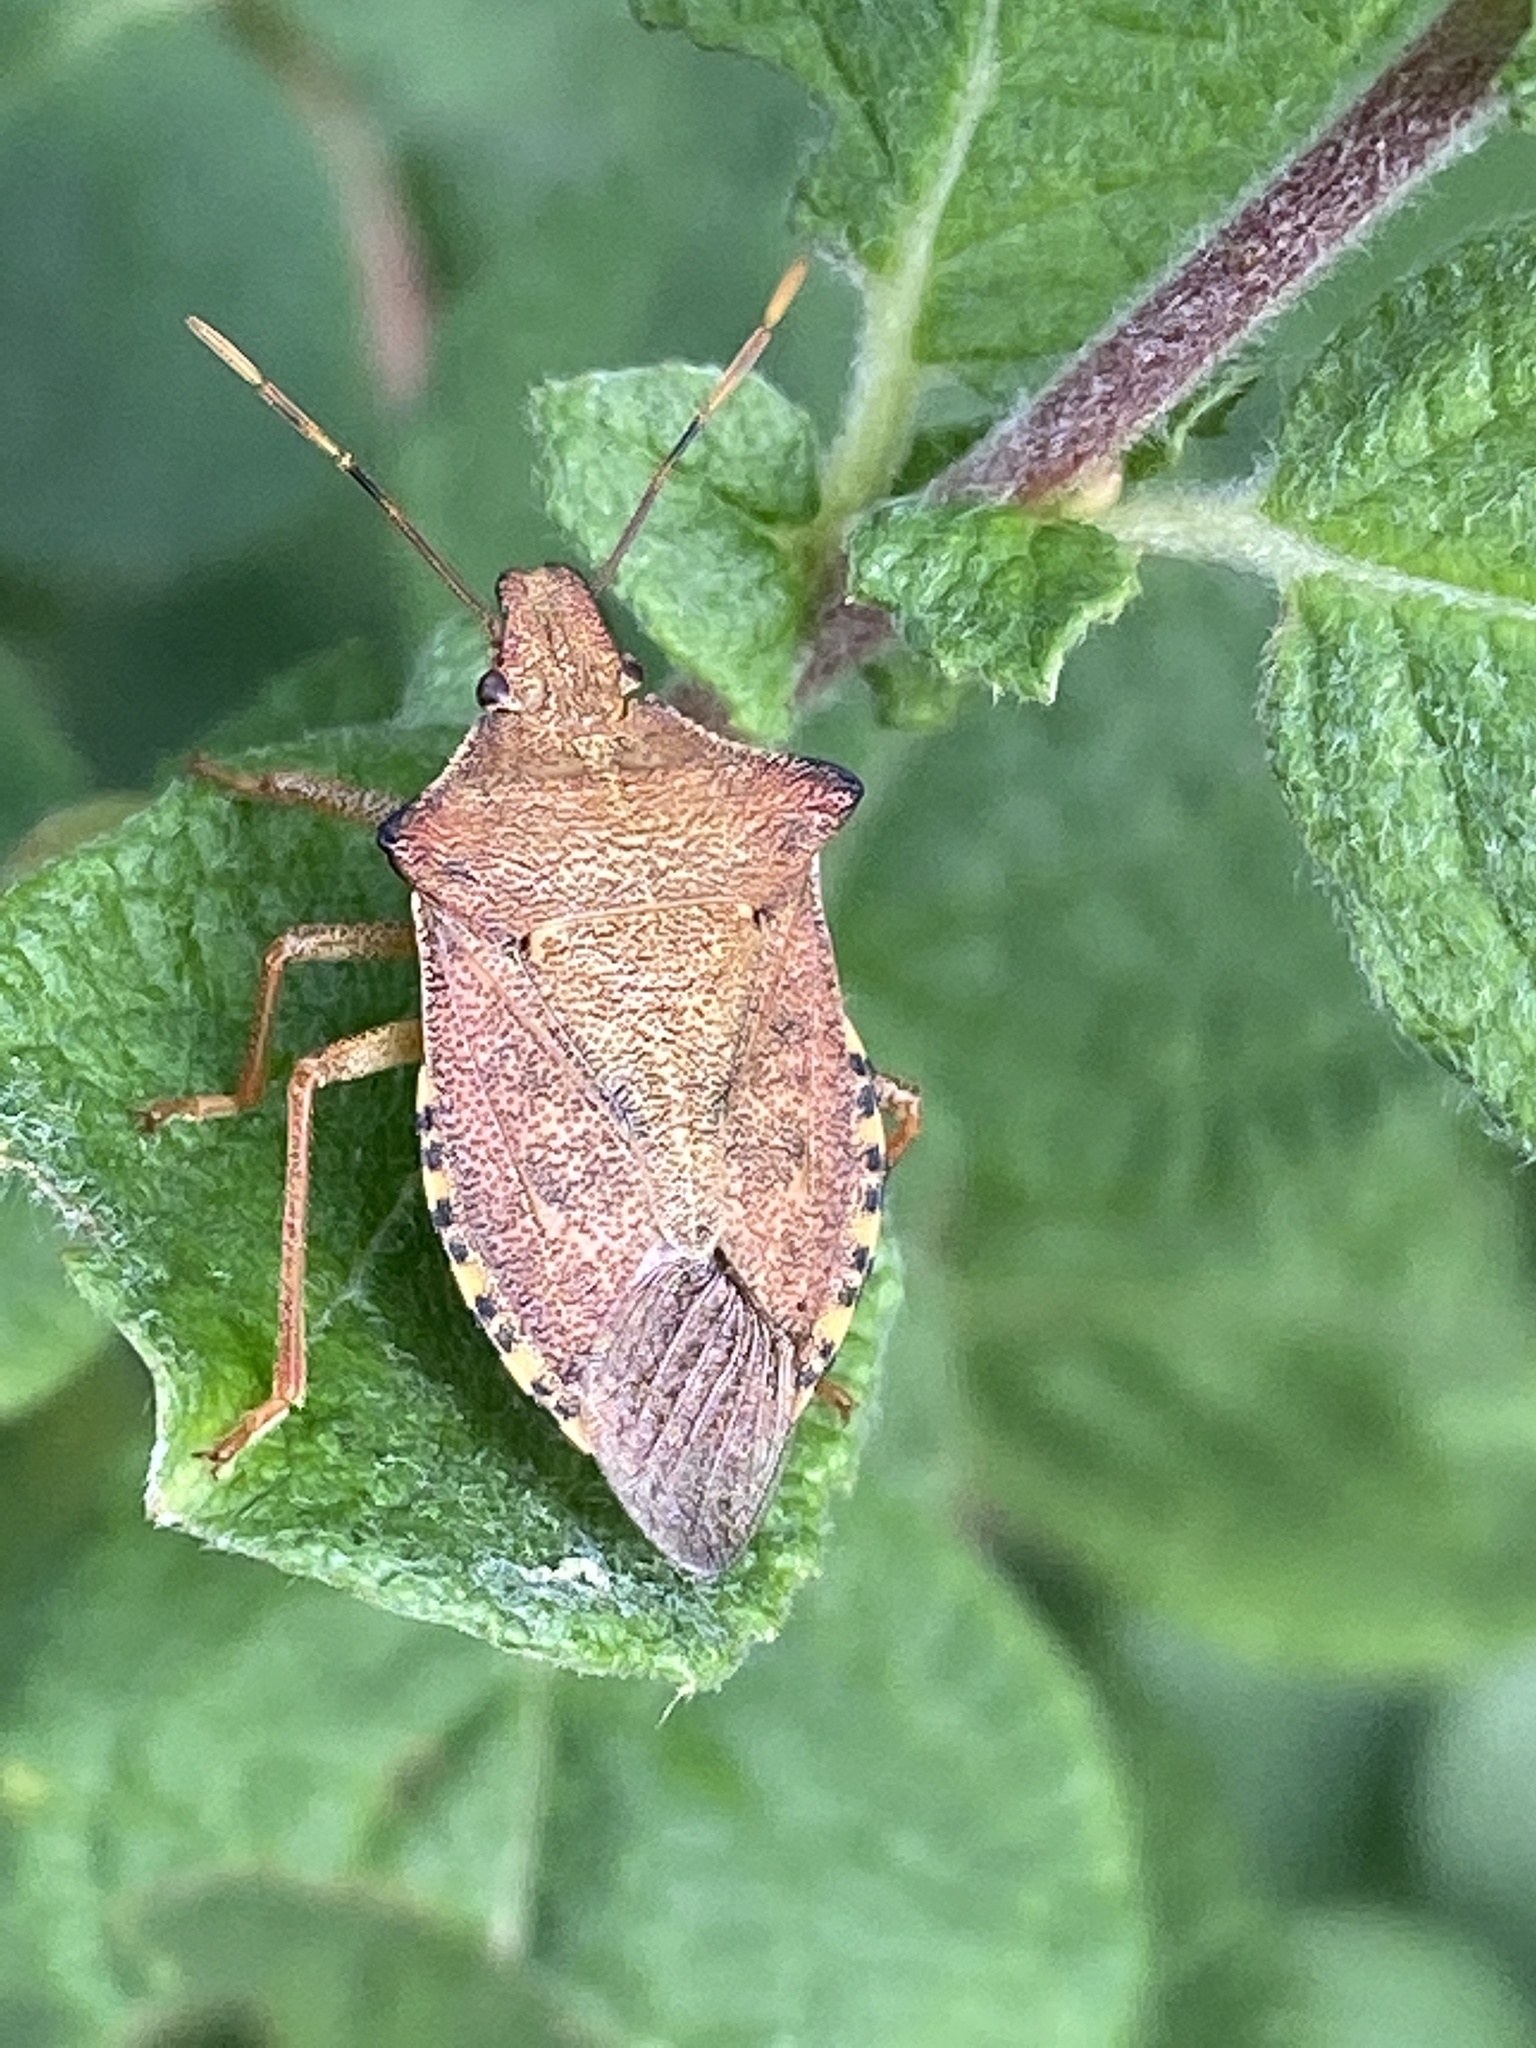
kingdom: Animalia
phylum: Arthropoda
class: Insecta
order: Hemiptera
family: Pentatomidae
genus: Arma
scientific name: Arma custos
